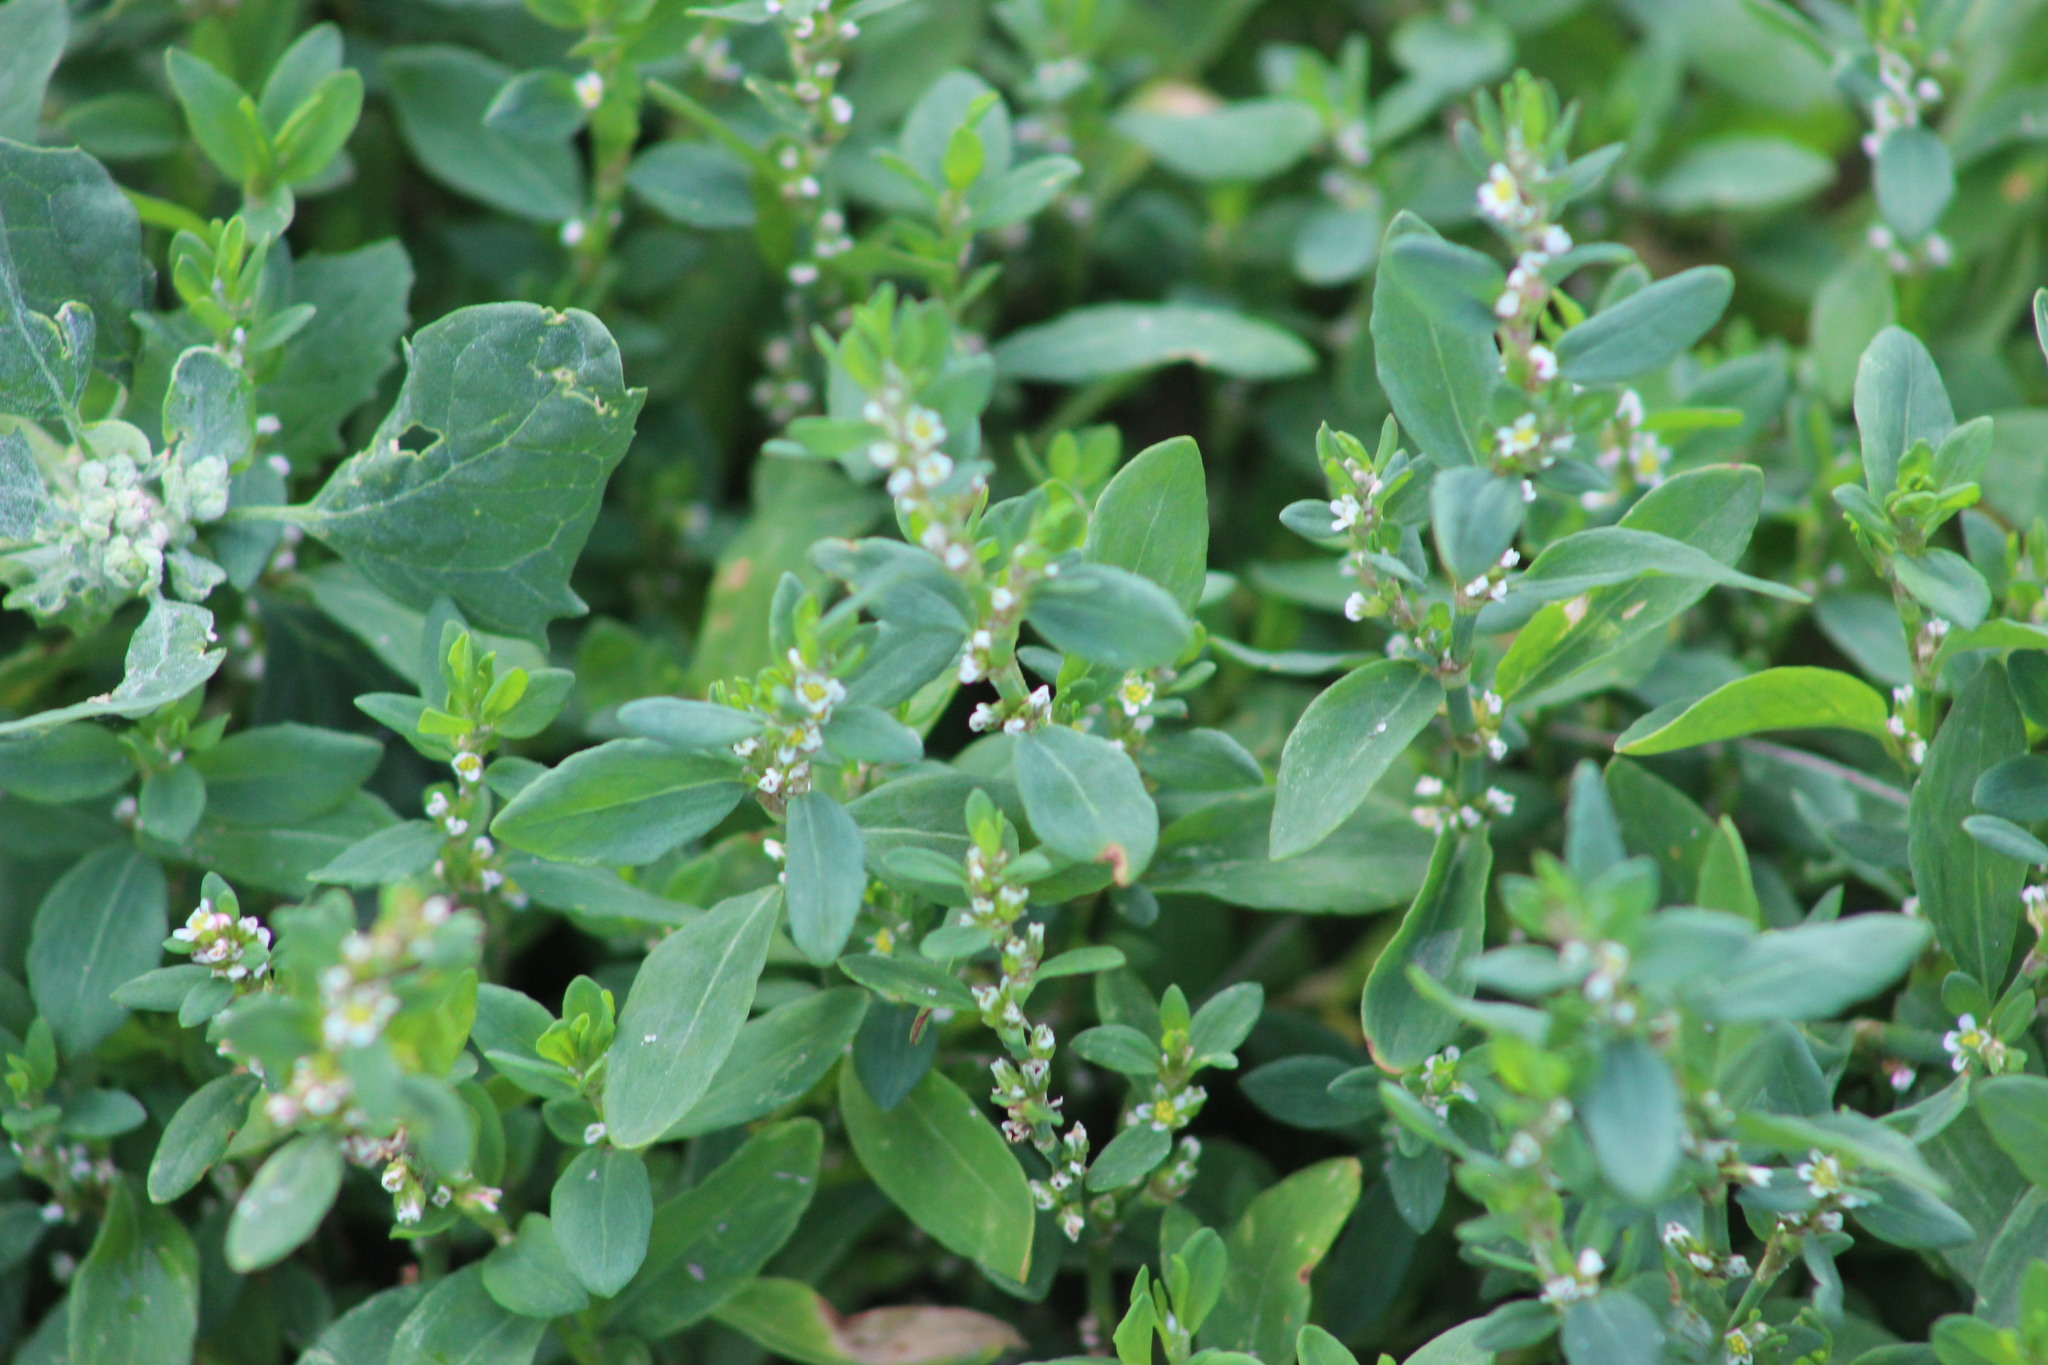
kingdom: Plantae
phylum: Tracheophyta
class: Magnoliopsida
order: Caryophyllales
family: Polygonaceae
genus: Polygonum
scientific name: Polygonum aviculare
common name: Prostrate knotweed
